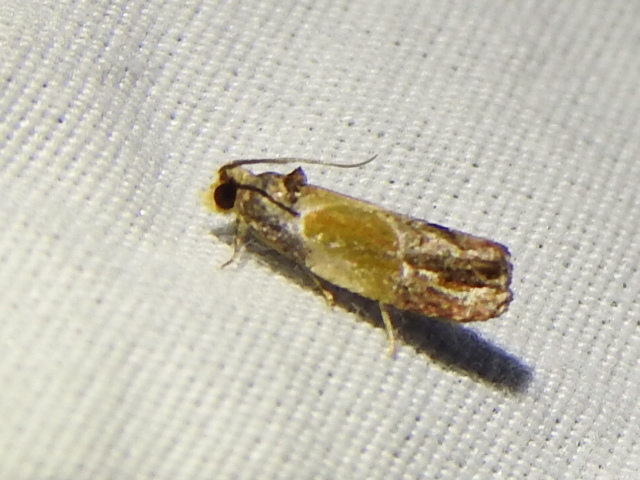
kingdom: Animalia
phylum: Arthropoda
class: Insecta
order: Lepidoptera
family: Tortricidae
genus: Eumarozia
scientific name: Eumarozia malachitana
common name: Sculptured moth
